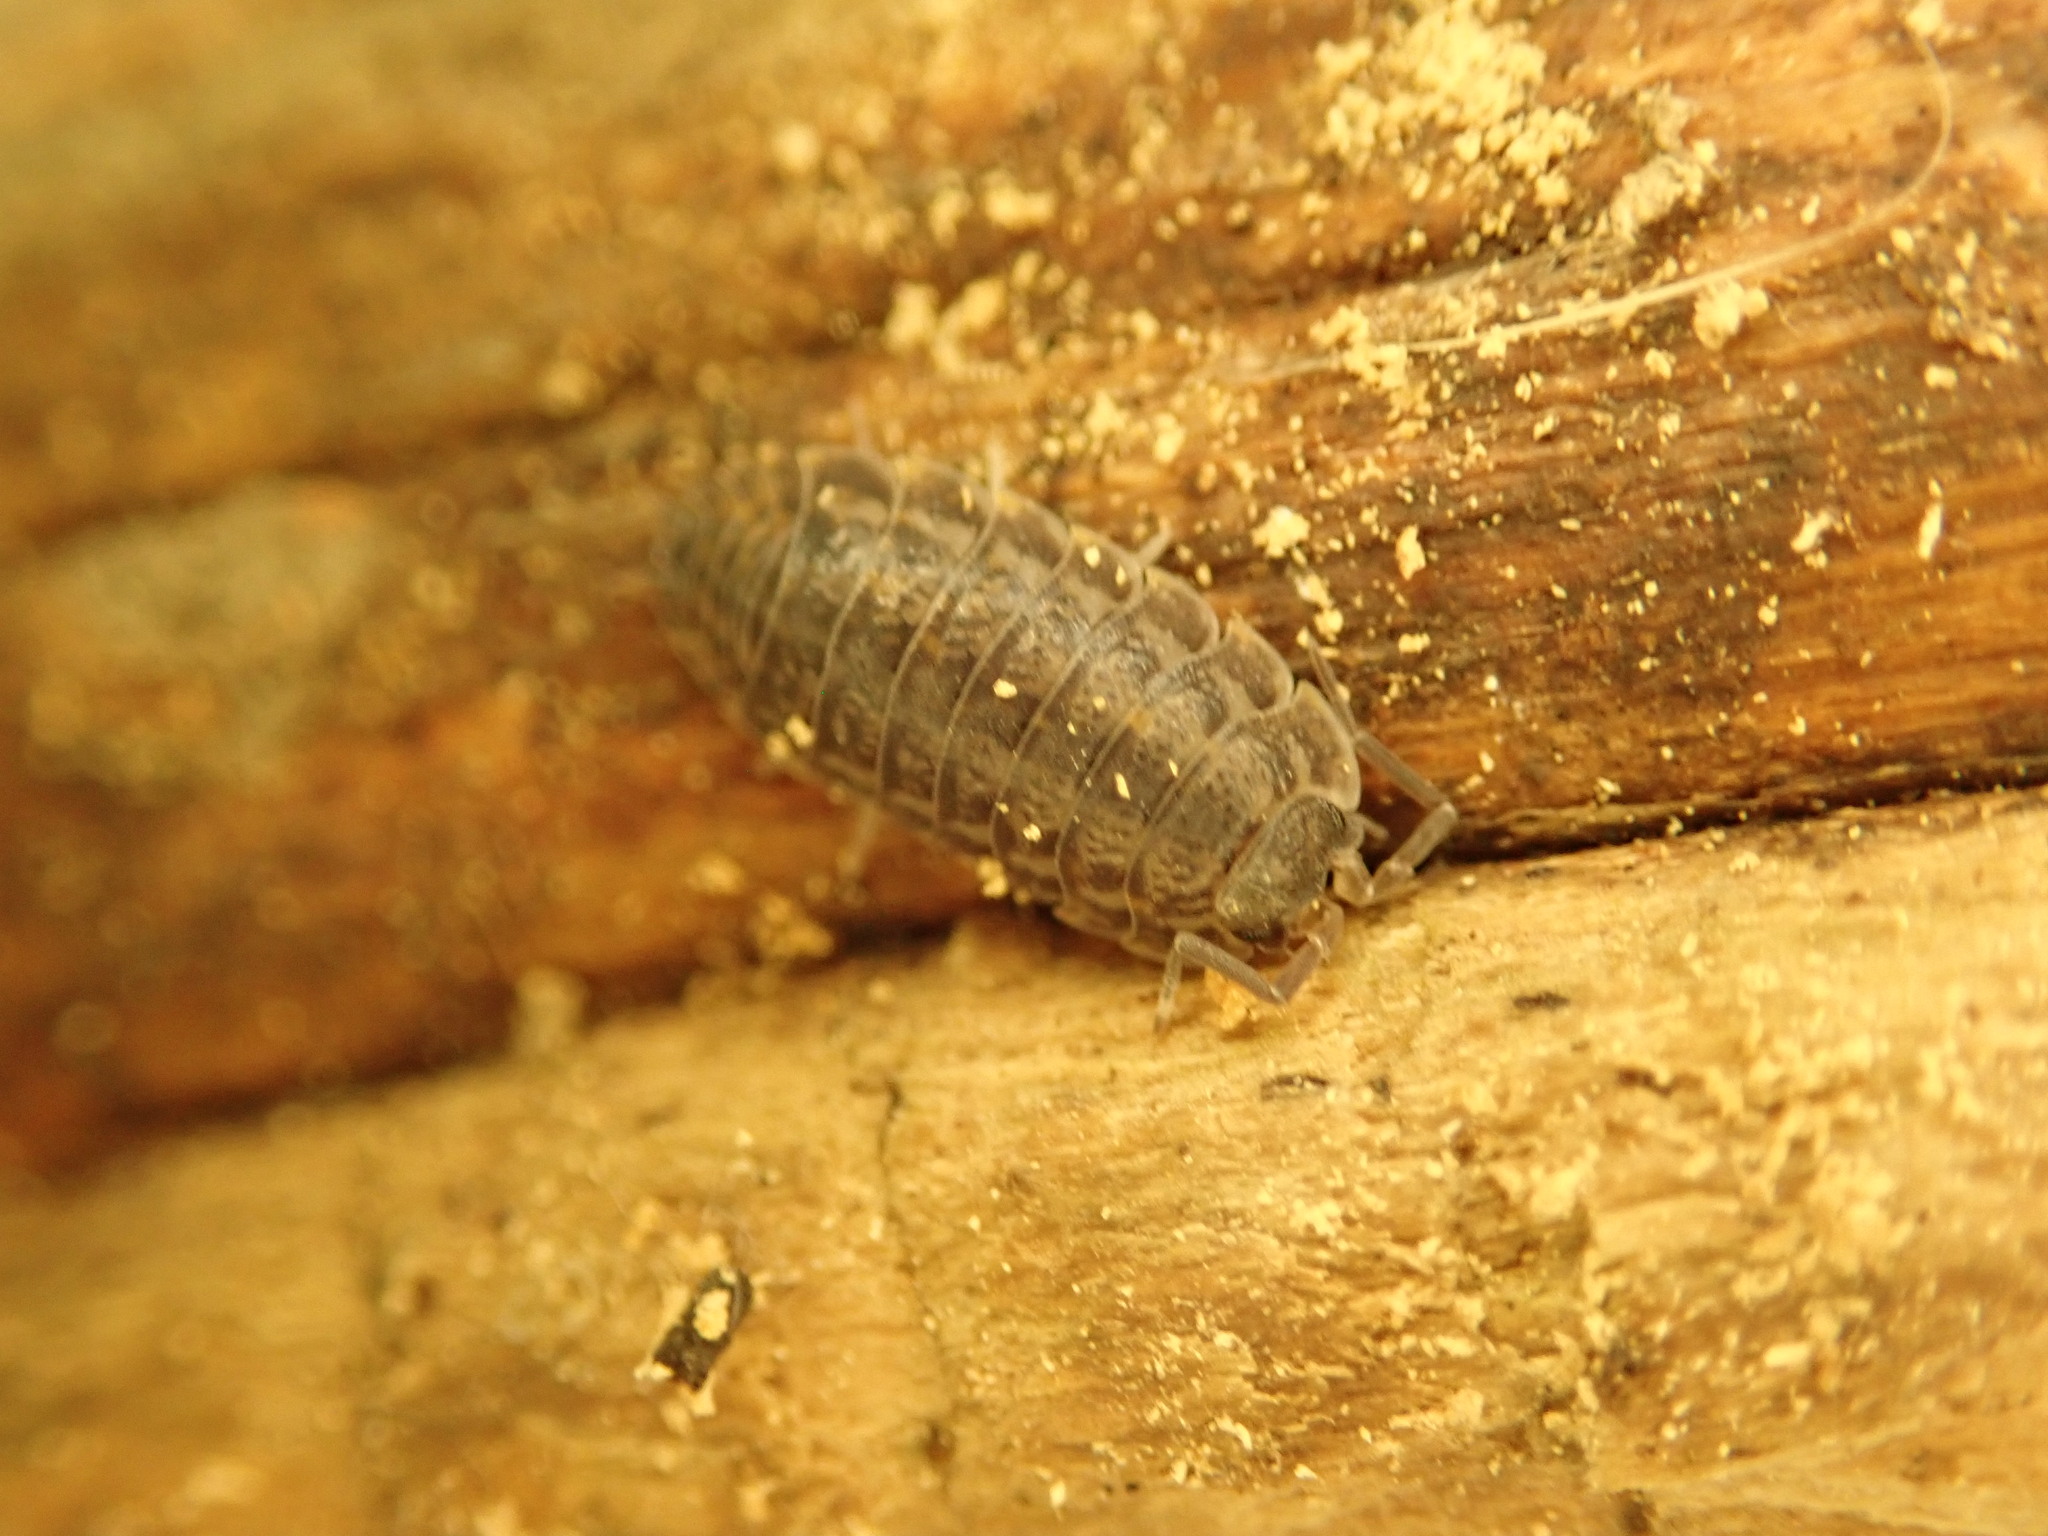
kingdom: Animalia
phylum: Arthropoda
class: Malacostraca
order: Isopoda
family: Trachelipodidae
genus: Trachelipus
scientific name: Trachelipus rathkii
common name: Isopod
